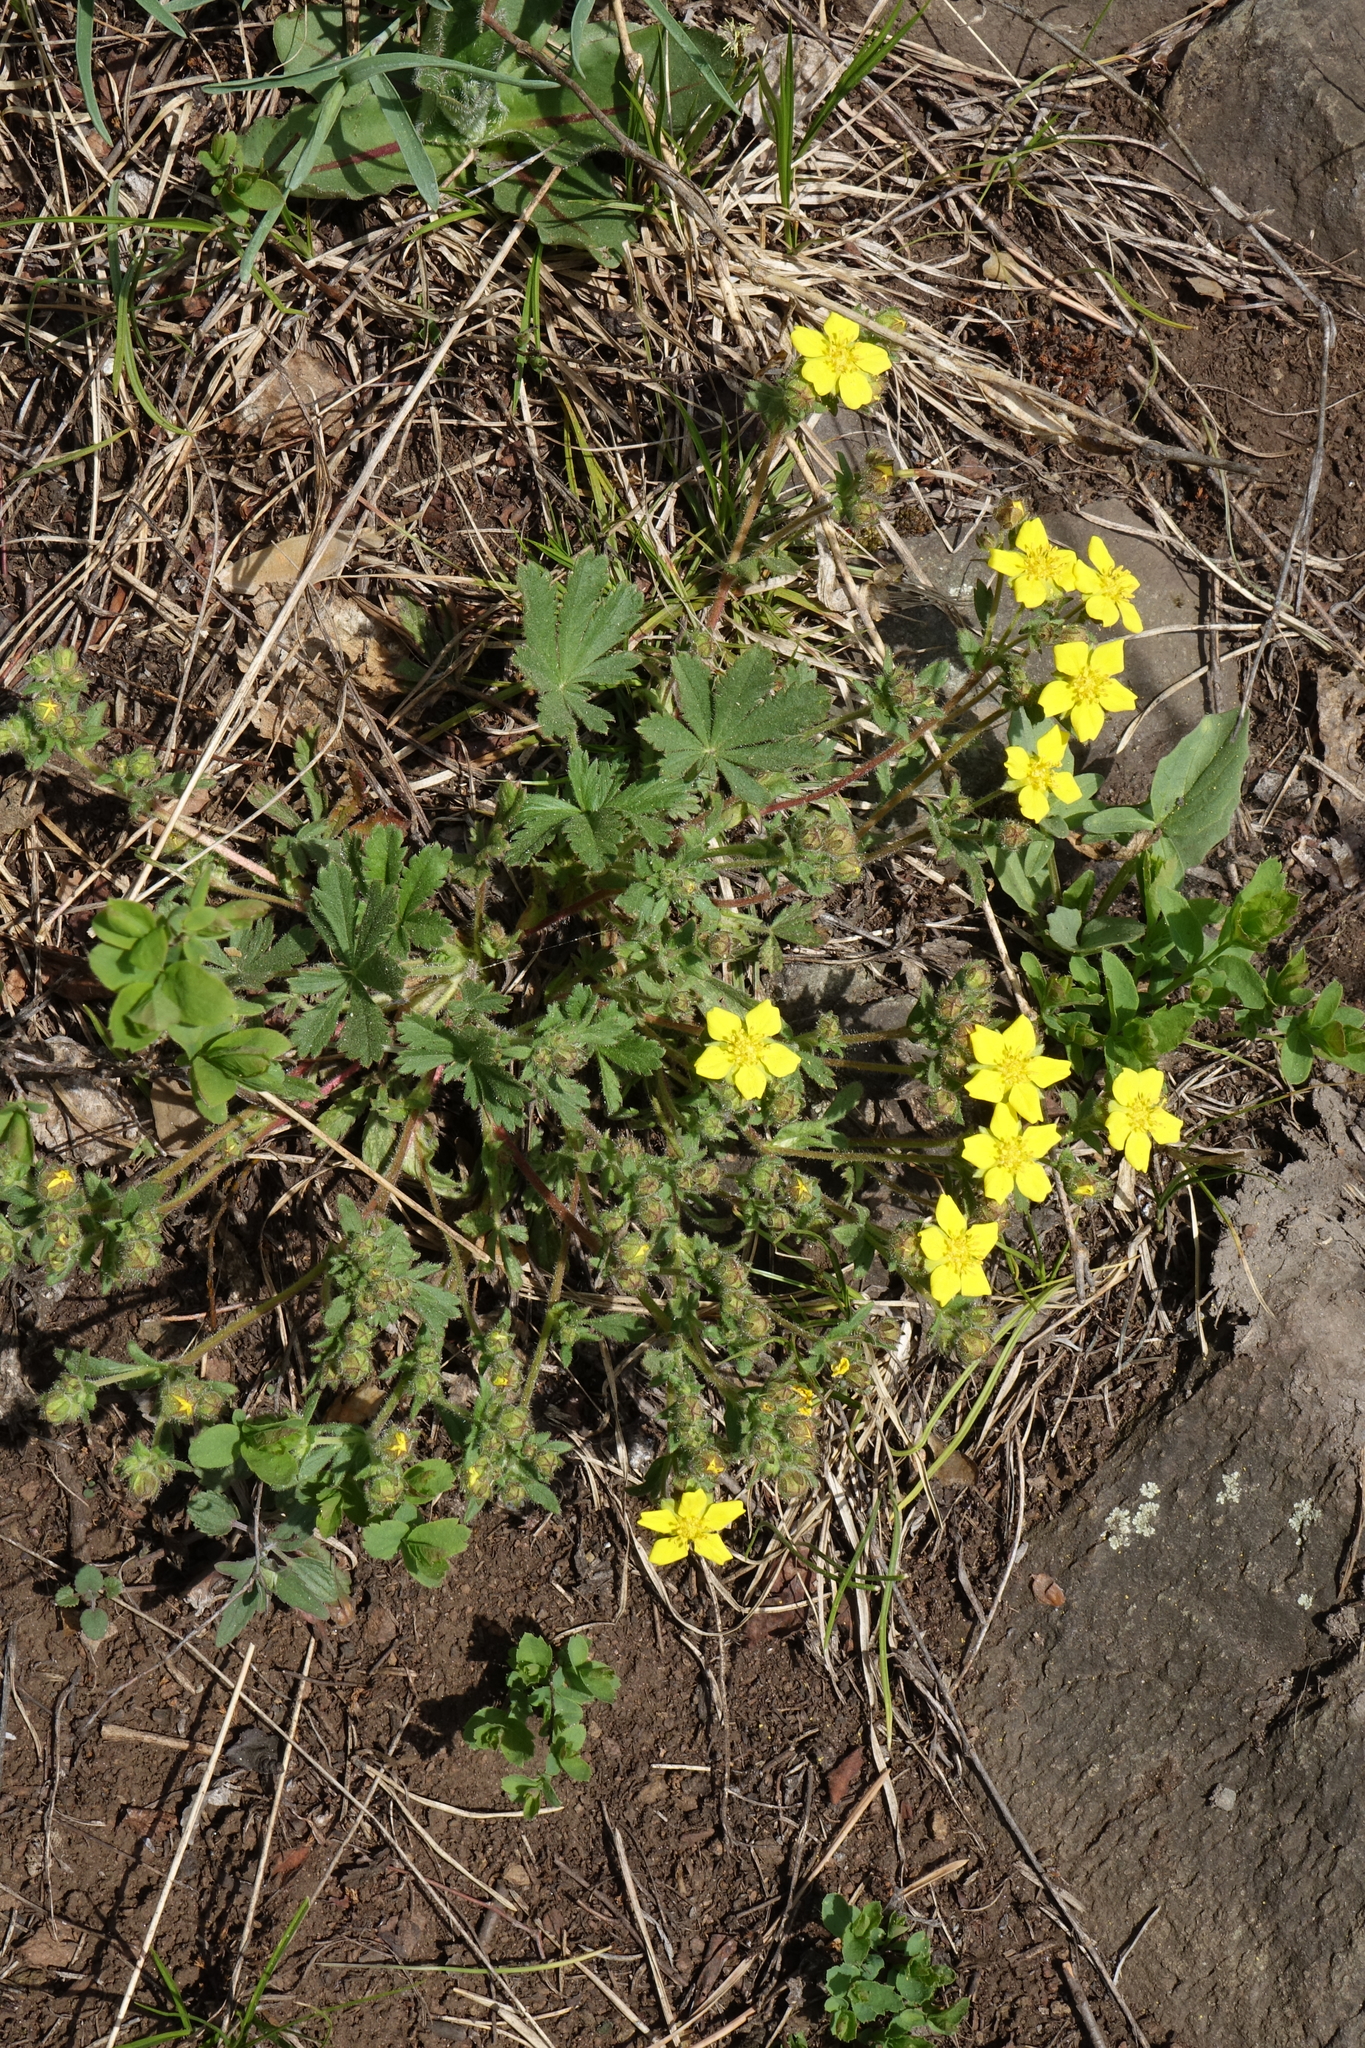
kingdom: Plantae
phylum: Tracheophyta
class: Magnoliopsida
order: Rosales
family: Rosaceae
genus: Potentilla
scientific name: Potentilla humifusa
